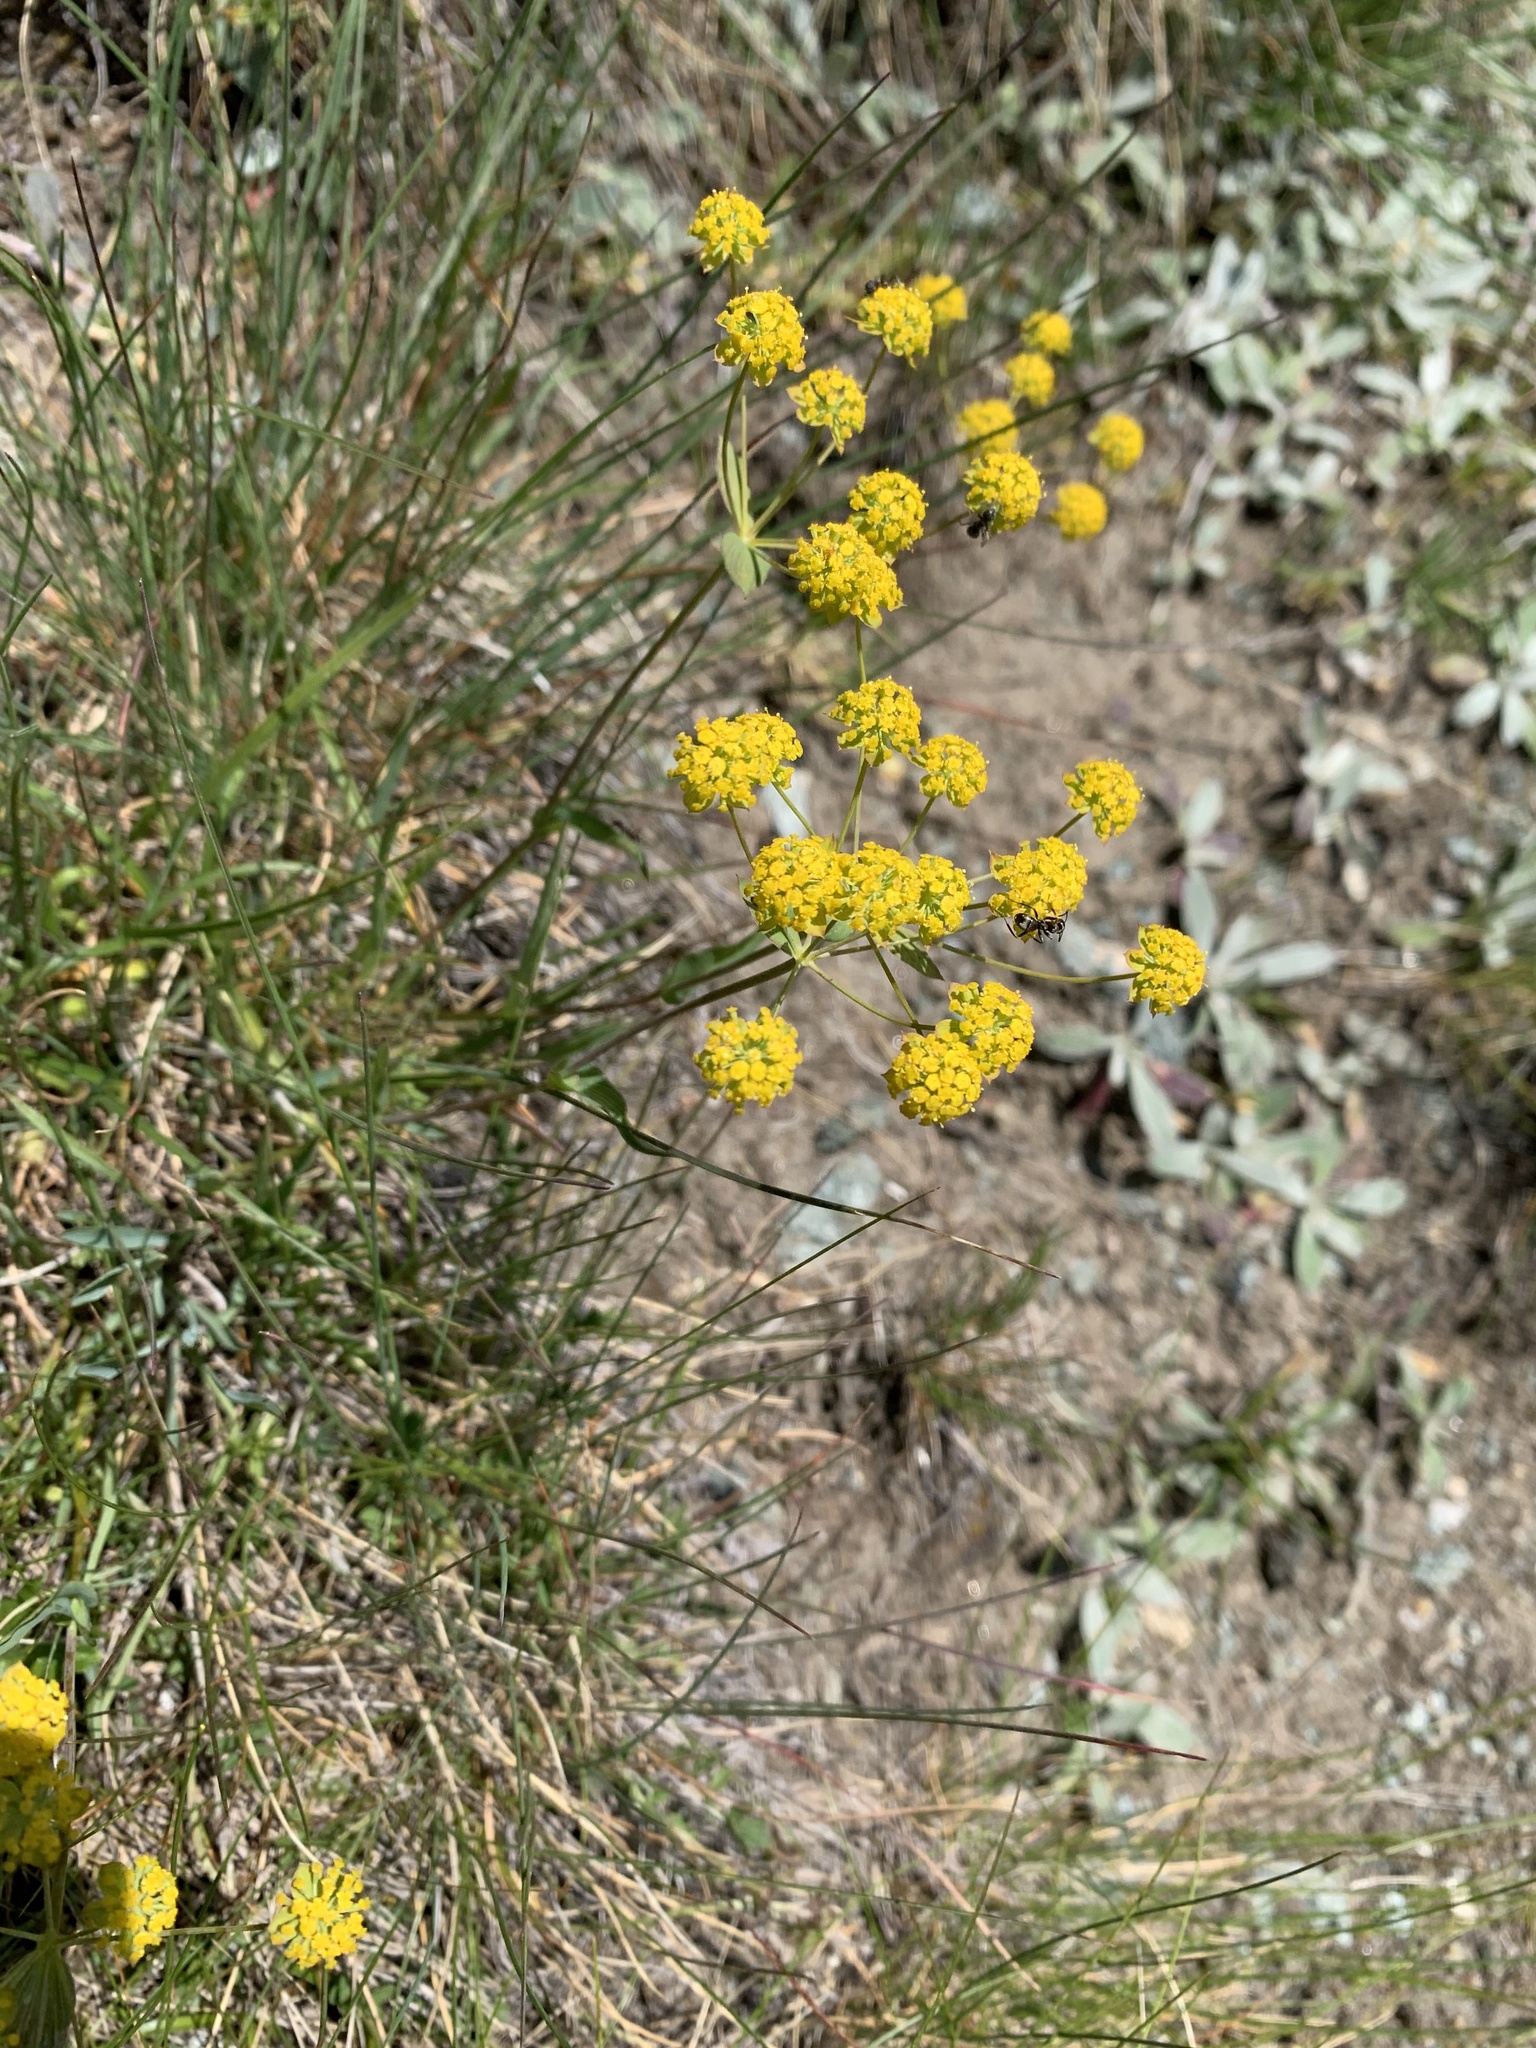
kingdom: Plantae
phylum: Tracheophyta
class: Magnoliopsida
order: Apiales
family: Apiaceae
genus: Bupleurum
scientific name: Bupleurum ranunculoides
